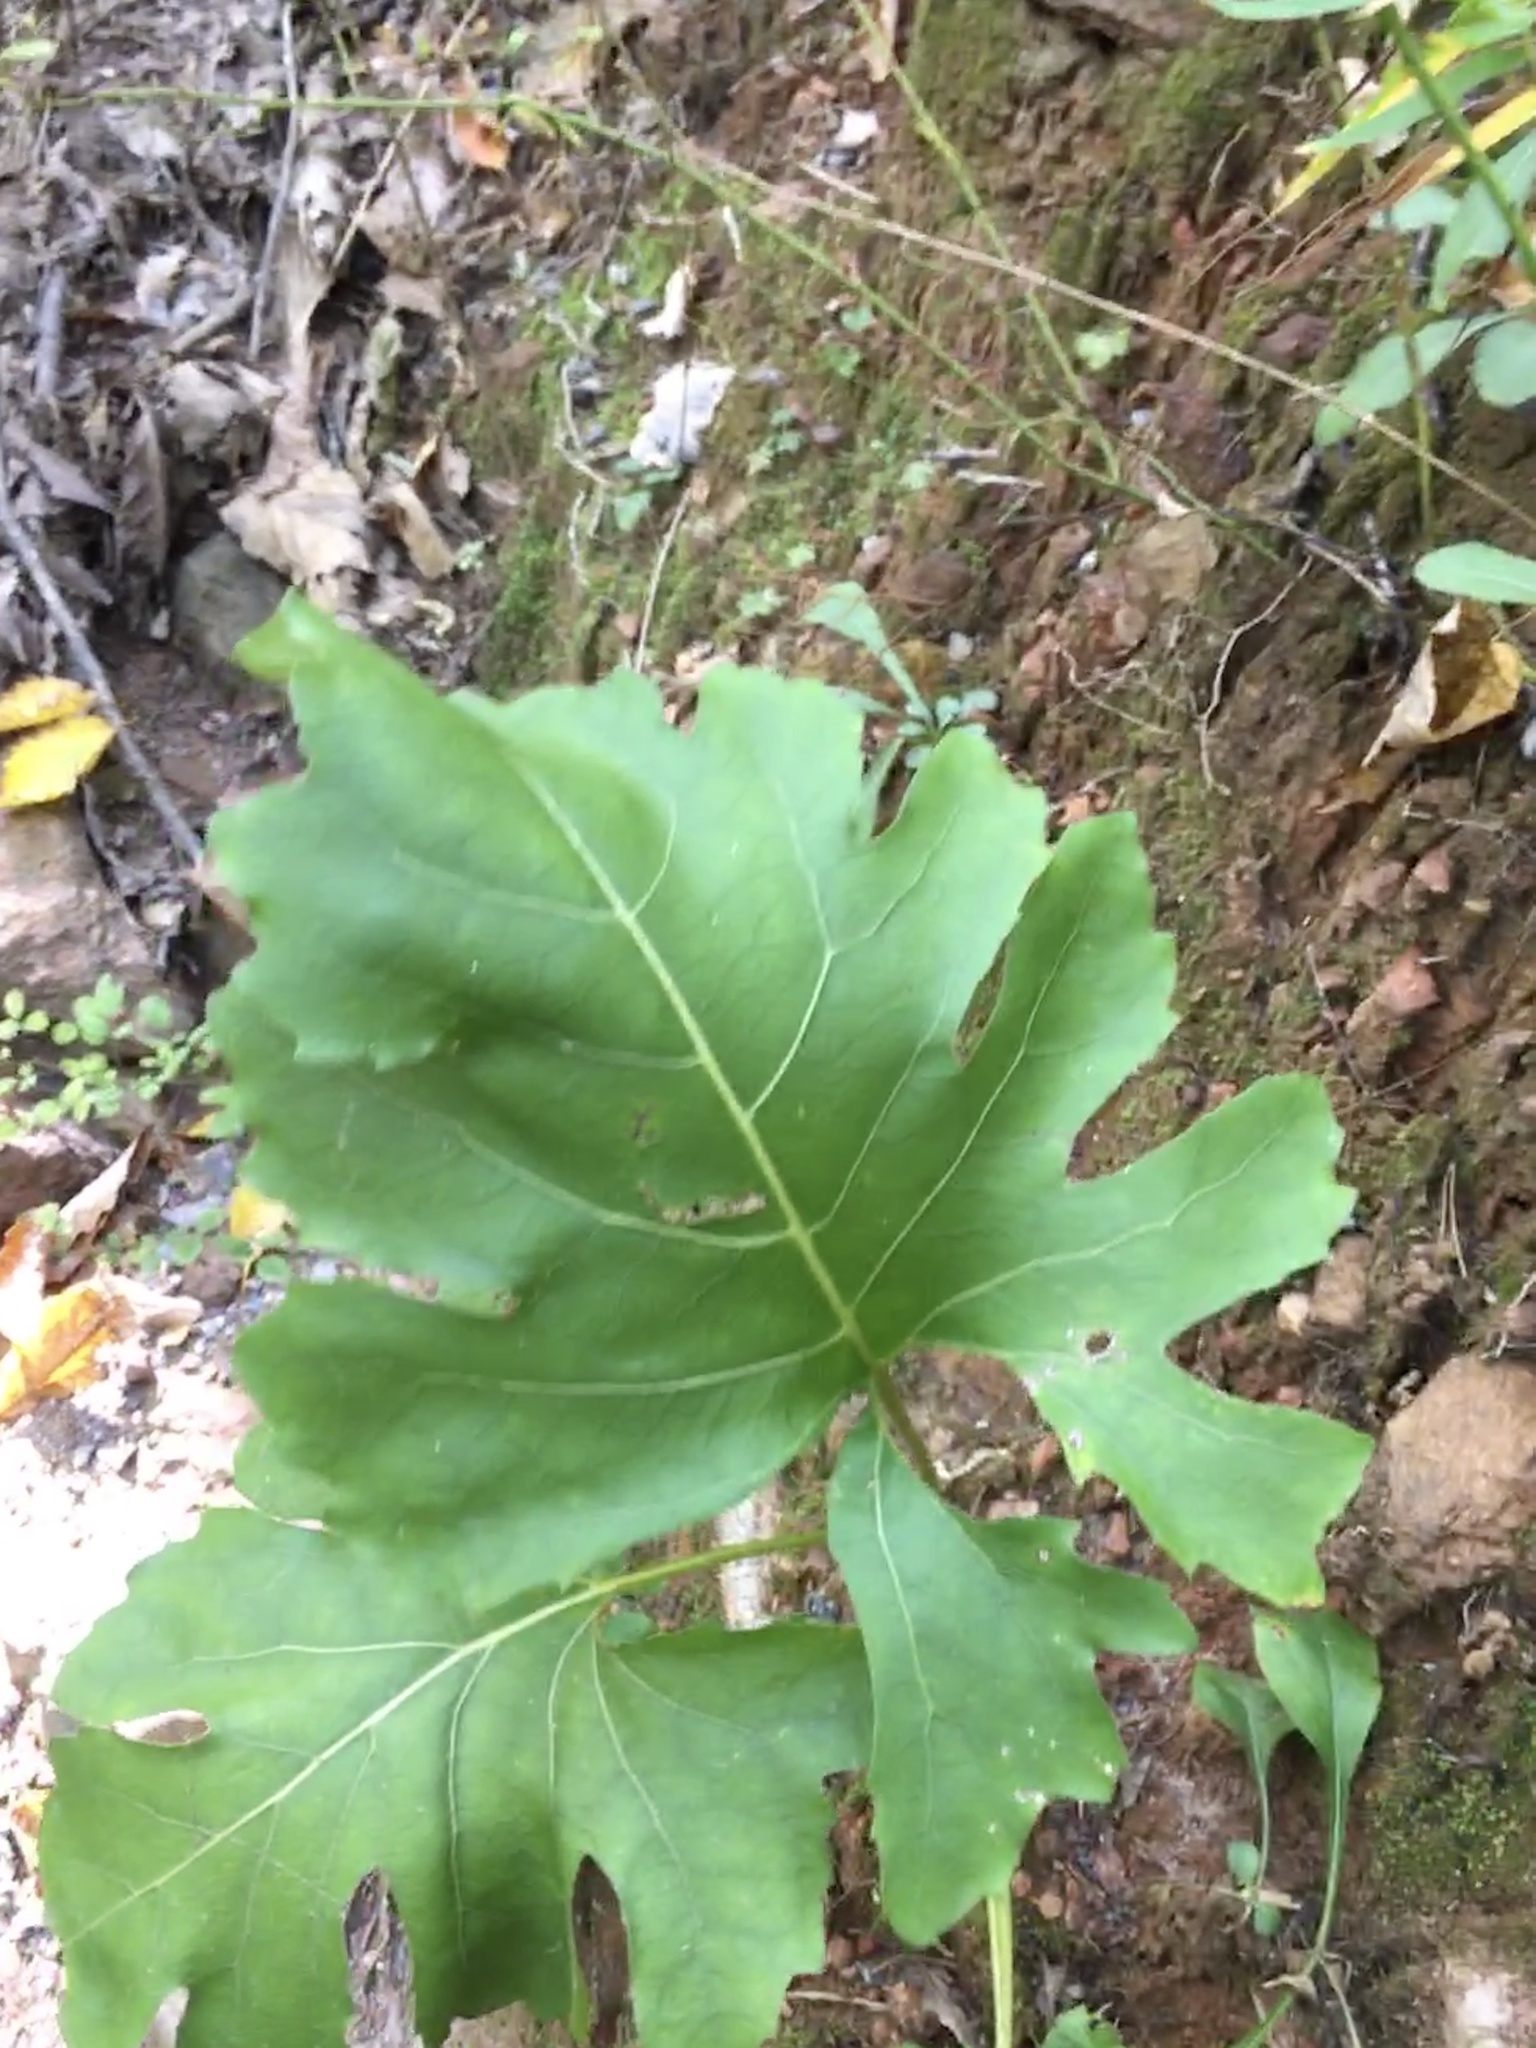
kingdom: Plantae
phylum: Tracheophyta
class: Magnoliopsida
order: Asterales
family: Asteraceae
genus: Silphium
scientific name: Silphium compositum
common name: Lesser basal-leaf rosinweed
